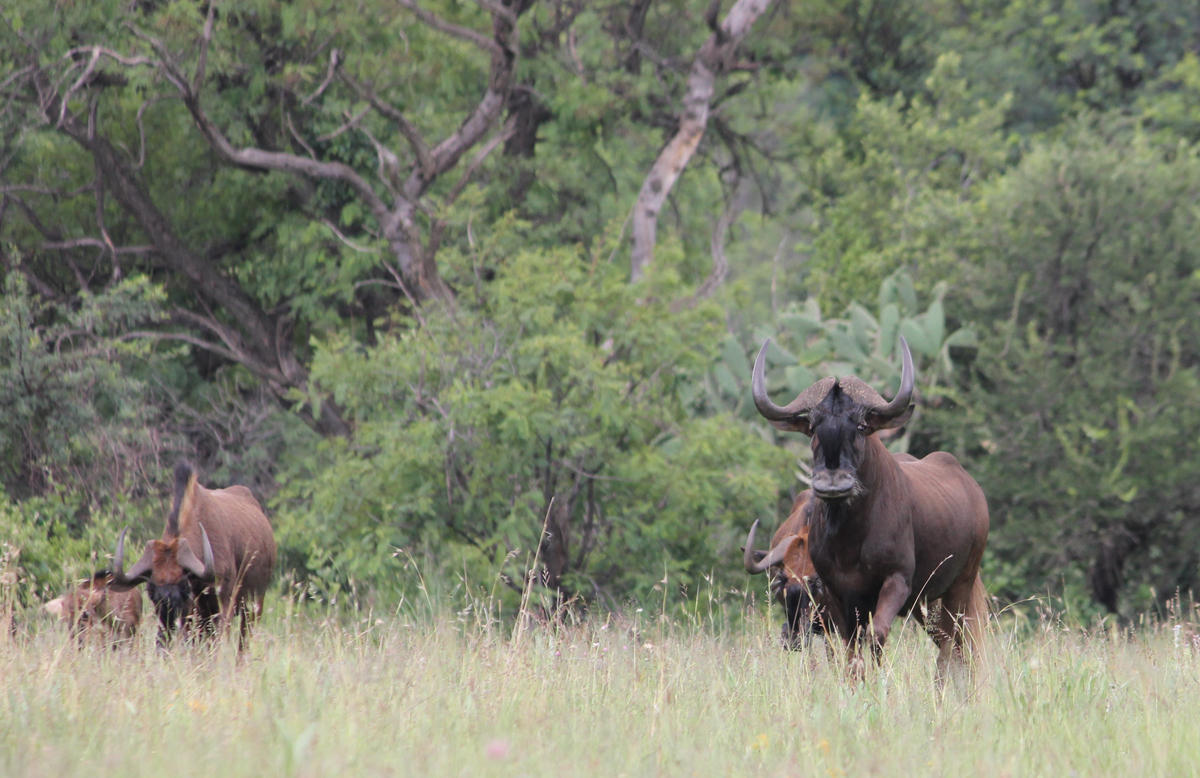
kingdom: Animalia
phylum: Chordata
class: Mammalia
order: Artiodactyla
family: Bovidae
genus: Connochaetes
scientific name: Connochaetes gnou
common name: Black wildebeest
